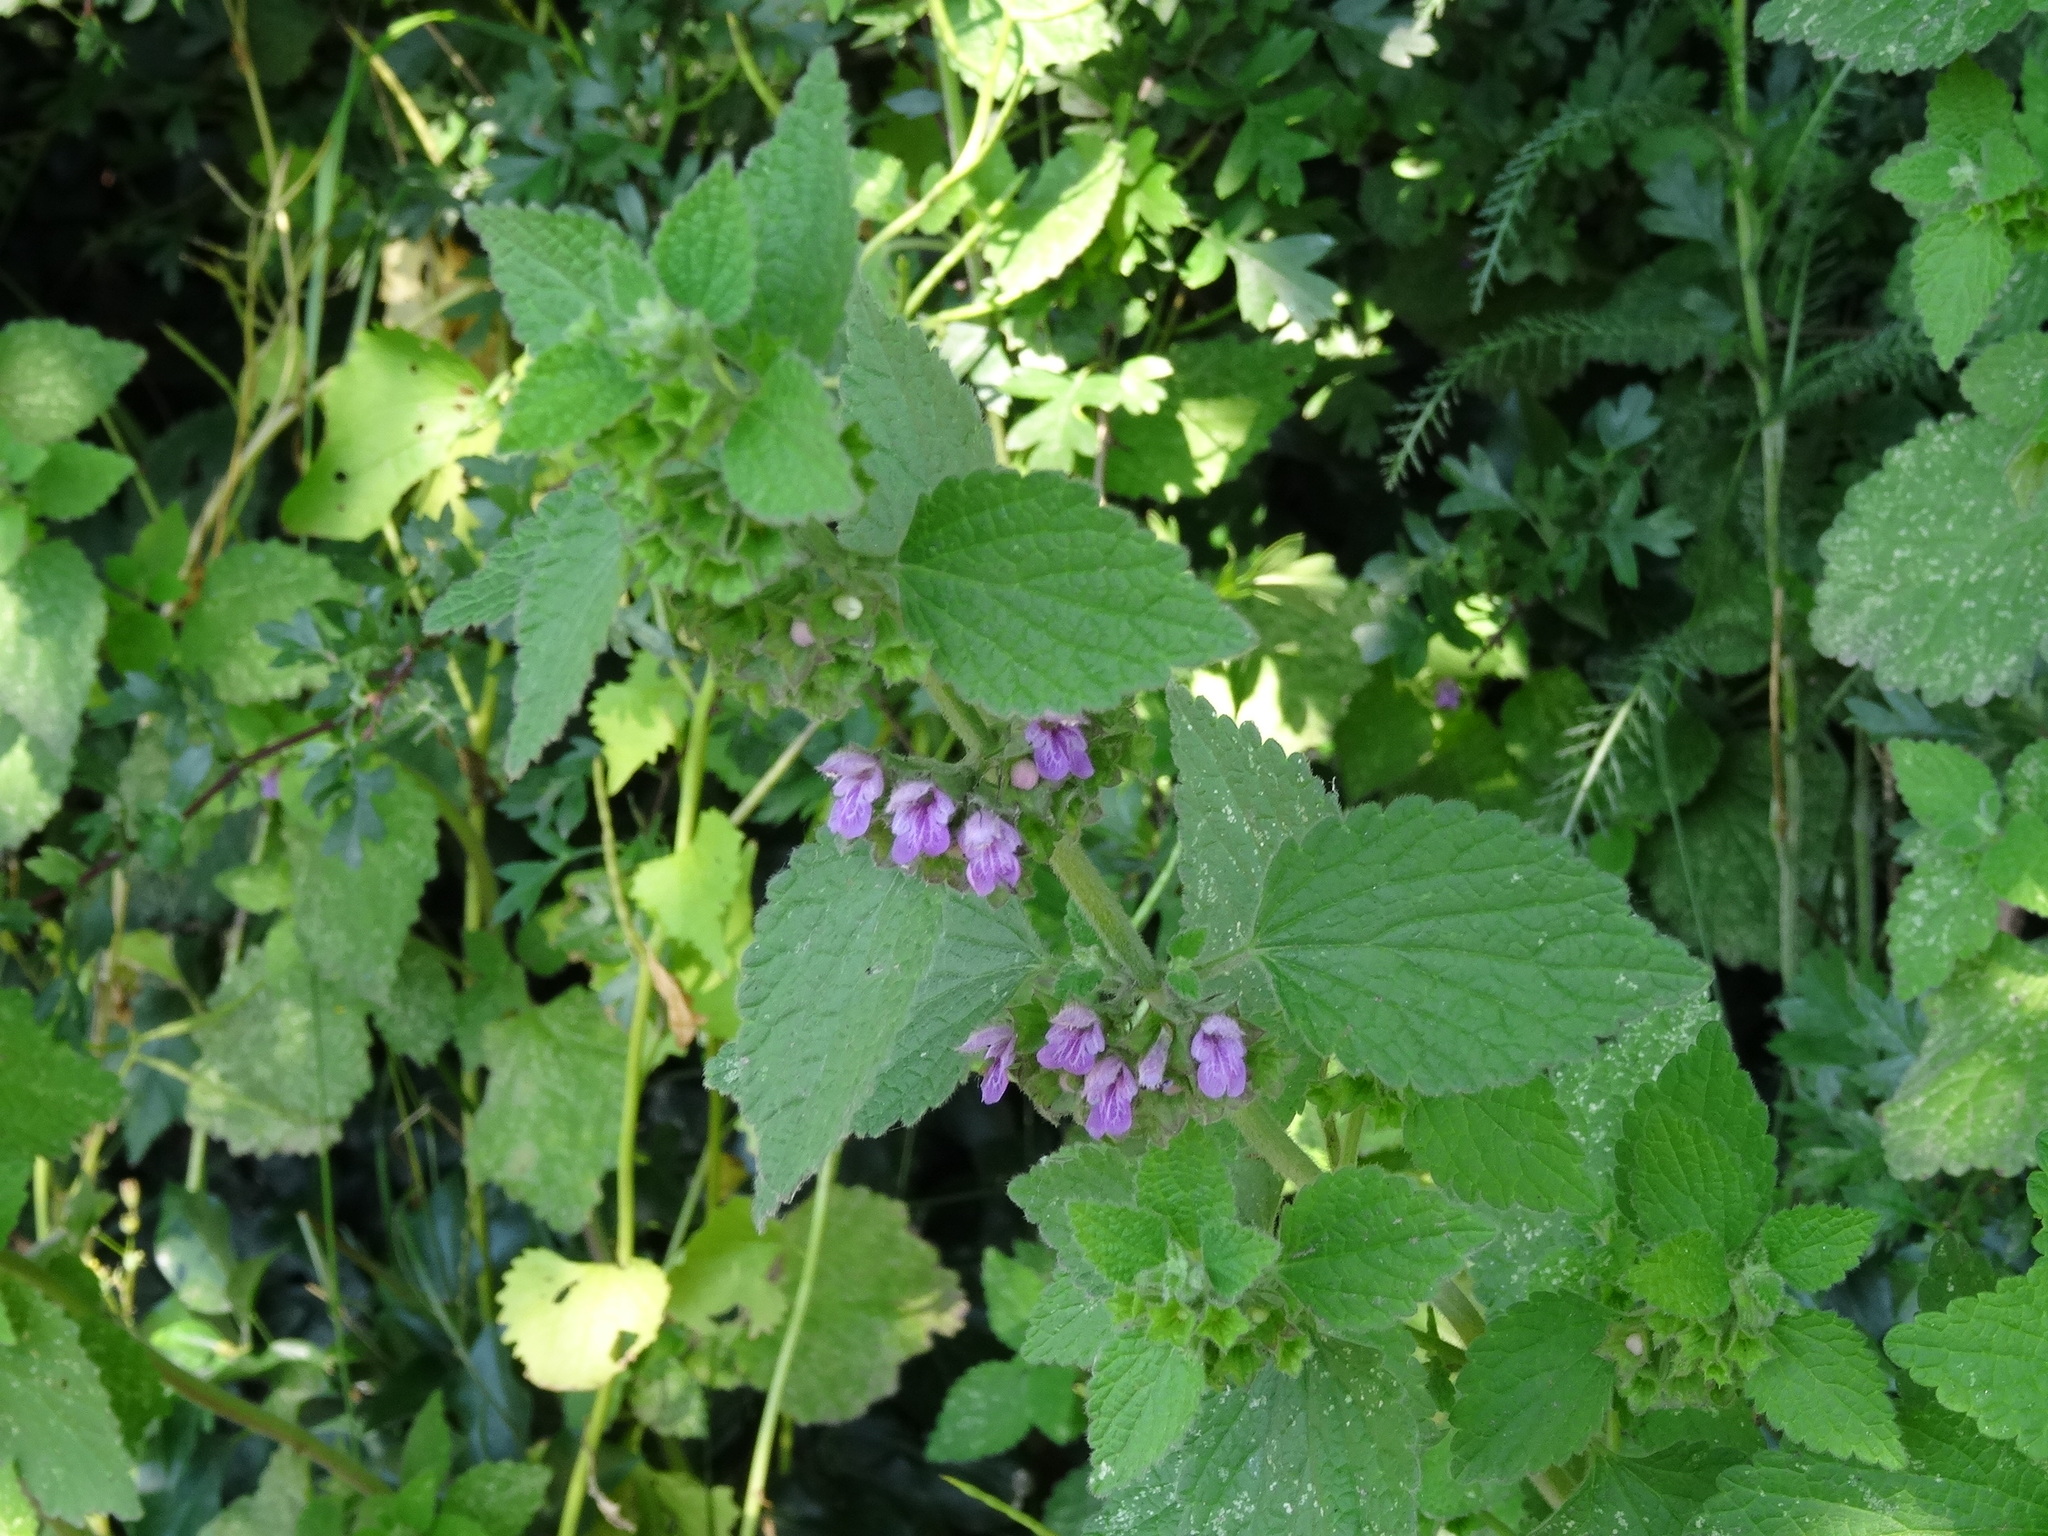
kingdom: Plantae
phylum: Tracheophyta
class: Magnoliopsida
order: Lamiales
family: Lamiaceae
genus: Ballota
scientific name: Ballota nigra
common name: Black horehound
